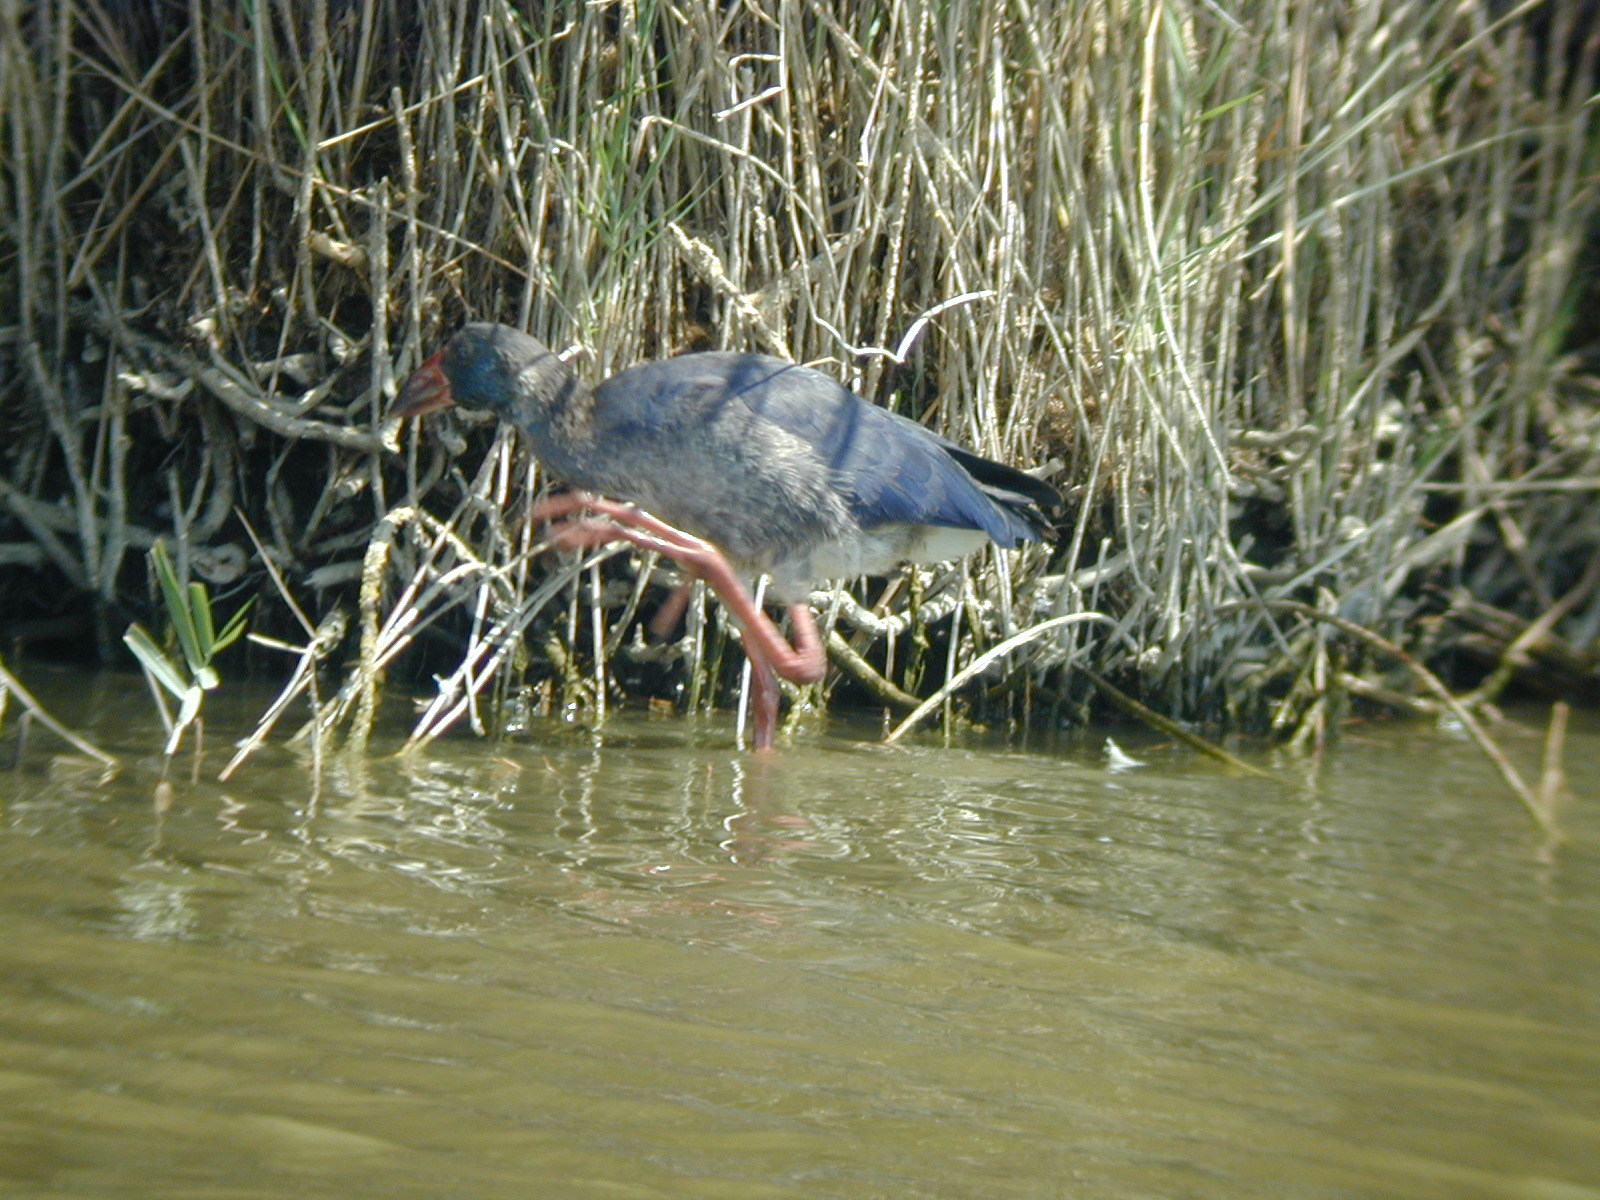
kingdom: Animalia
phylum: Chordata
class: Aves
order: Gruiformes
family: Rallidae
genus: Porphyrio
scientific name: Porphyrio porphyrio
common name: Purple swamphen
